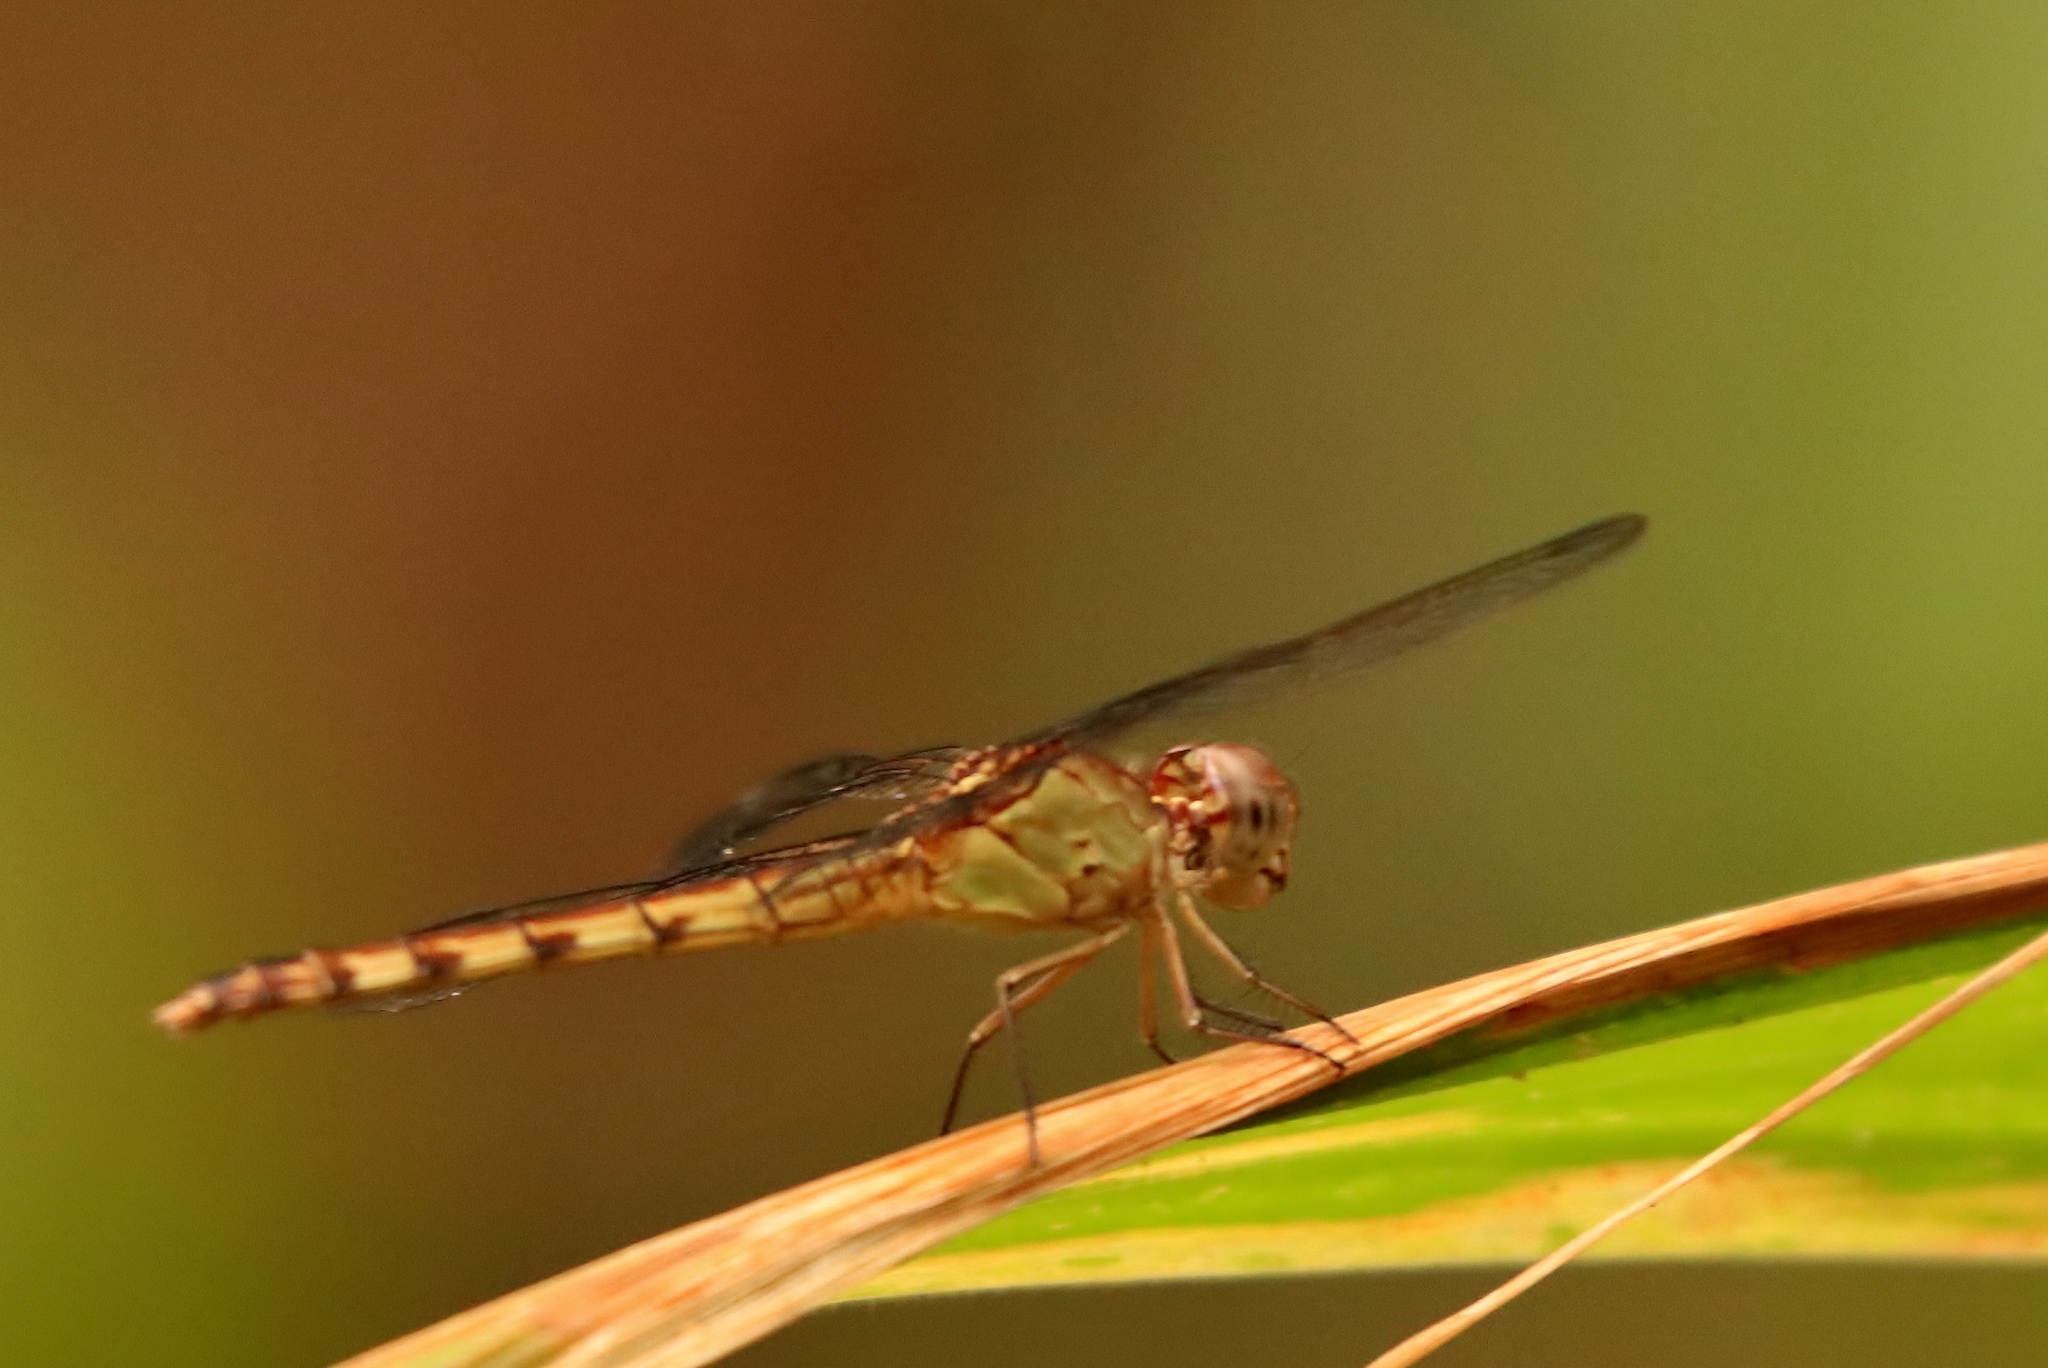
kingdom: Animalia
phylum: Arthropoda
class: Insecta
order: Odonata
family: Libellulidae
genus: Erythrodiplax
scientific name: Erythrodiplax umbrata
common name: Band-winged dragonlet
